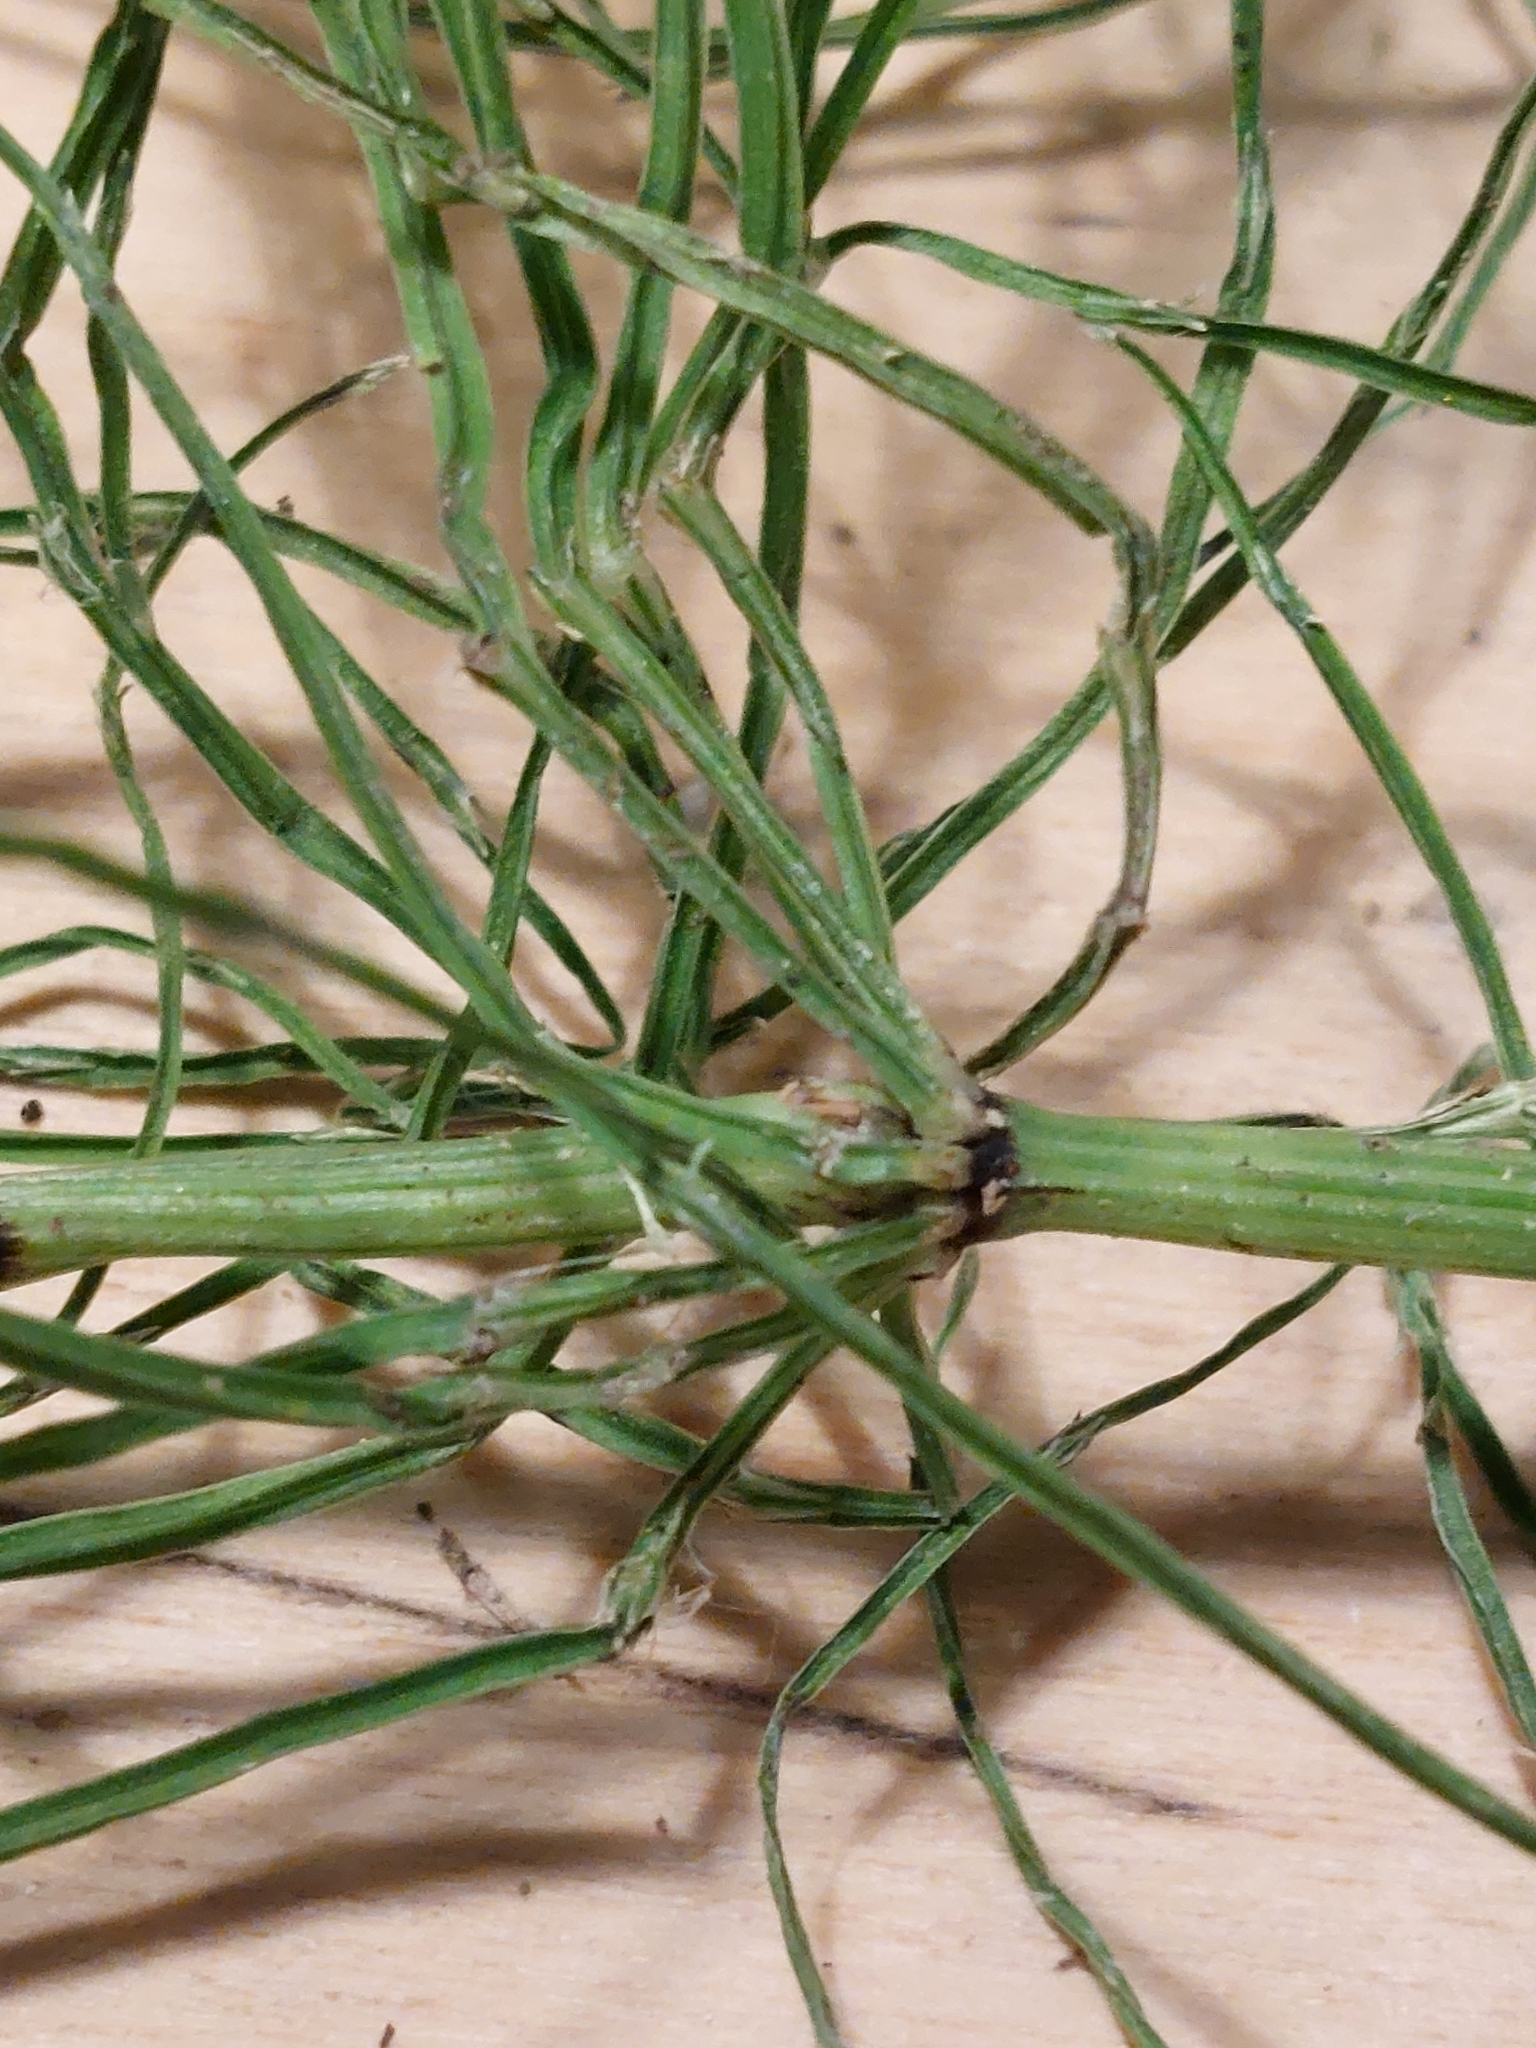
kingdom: Plantae
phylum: Tracheophyta
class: Polypodiopsida
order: Equisetales
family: Equisetaceae
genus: Equisetum
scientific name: Equisetum arvense
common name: Field horsetail
